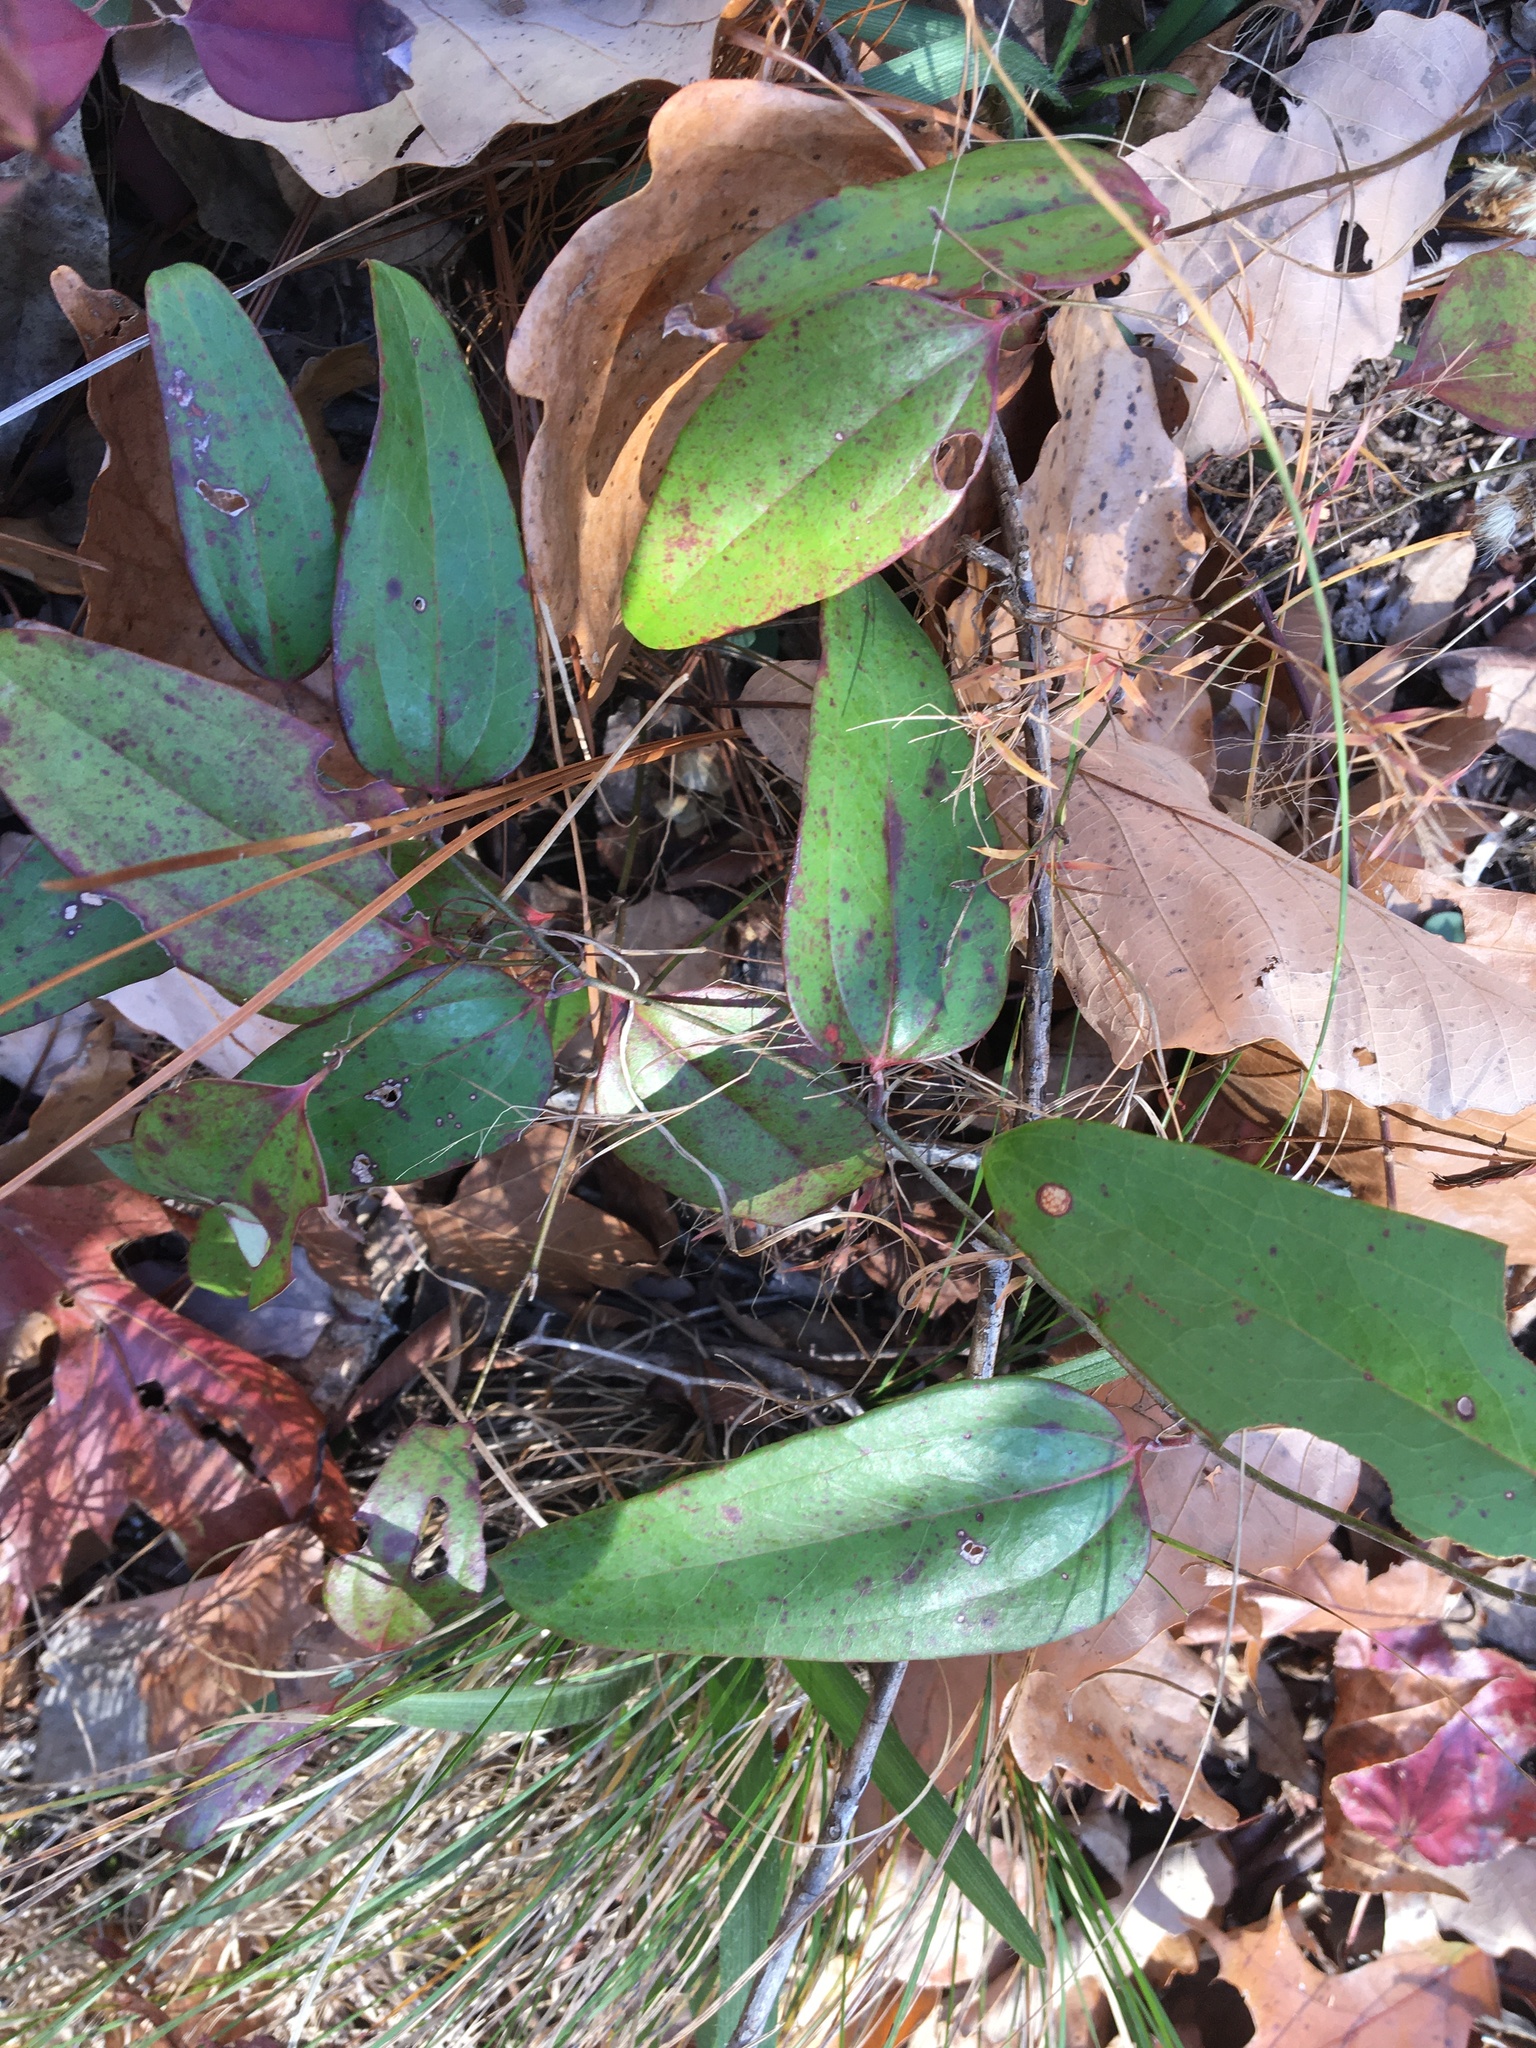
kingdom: Plantae
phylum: Tracheophyta
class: Liliopsida
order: Liliales
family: Smilacaceae
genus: Smilax
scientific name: Smilax glauca
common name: Cat greenbrier
